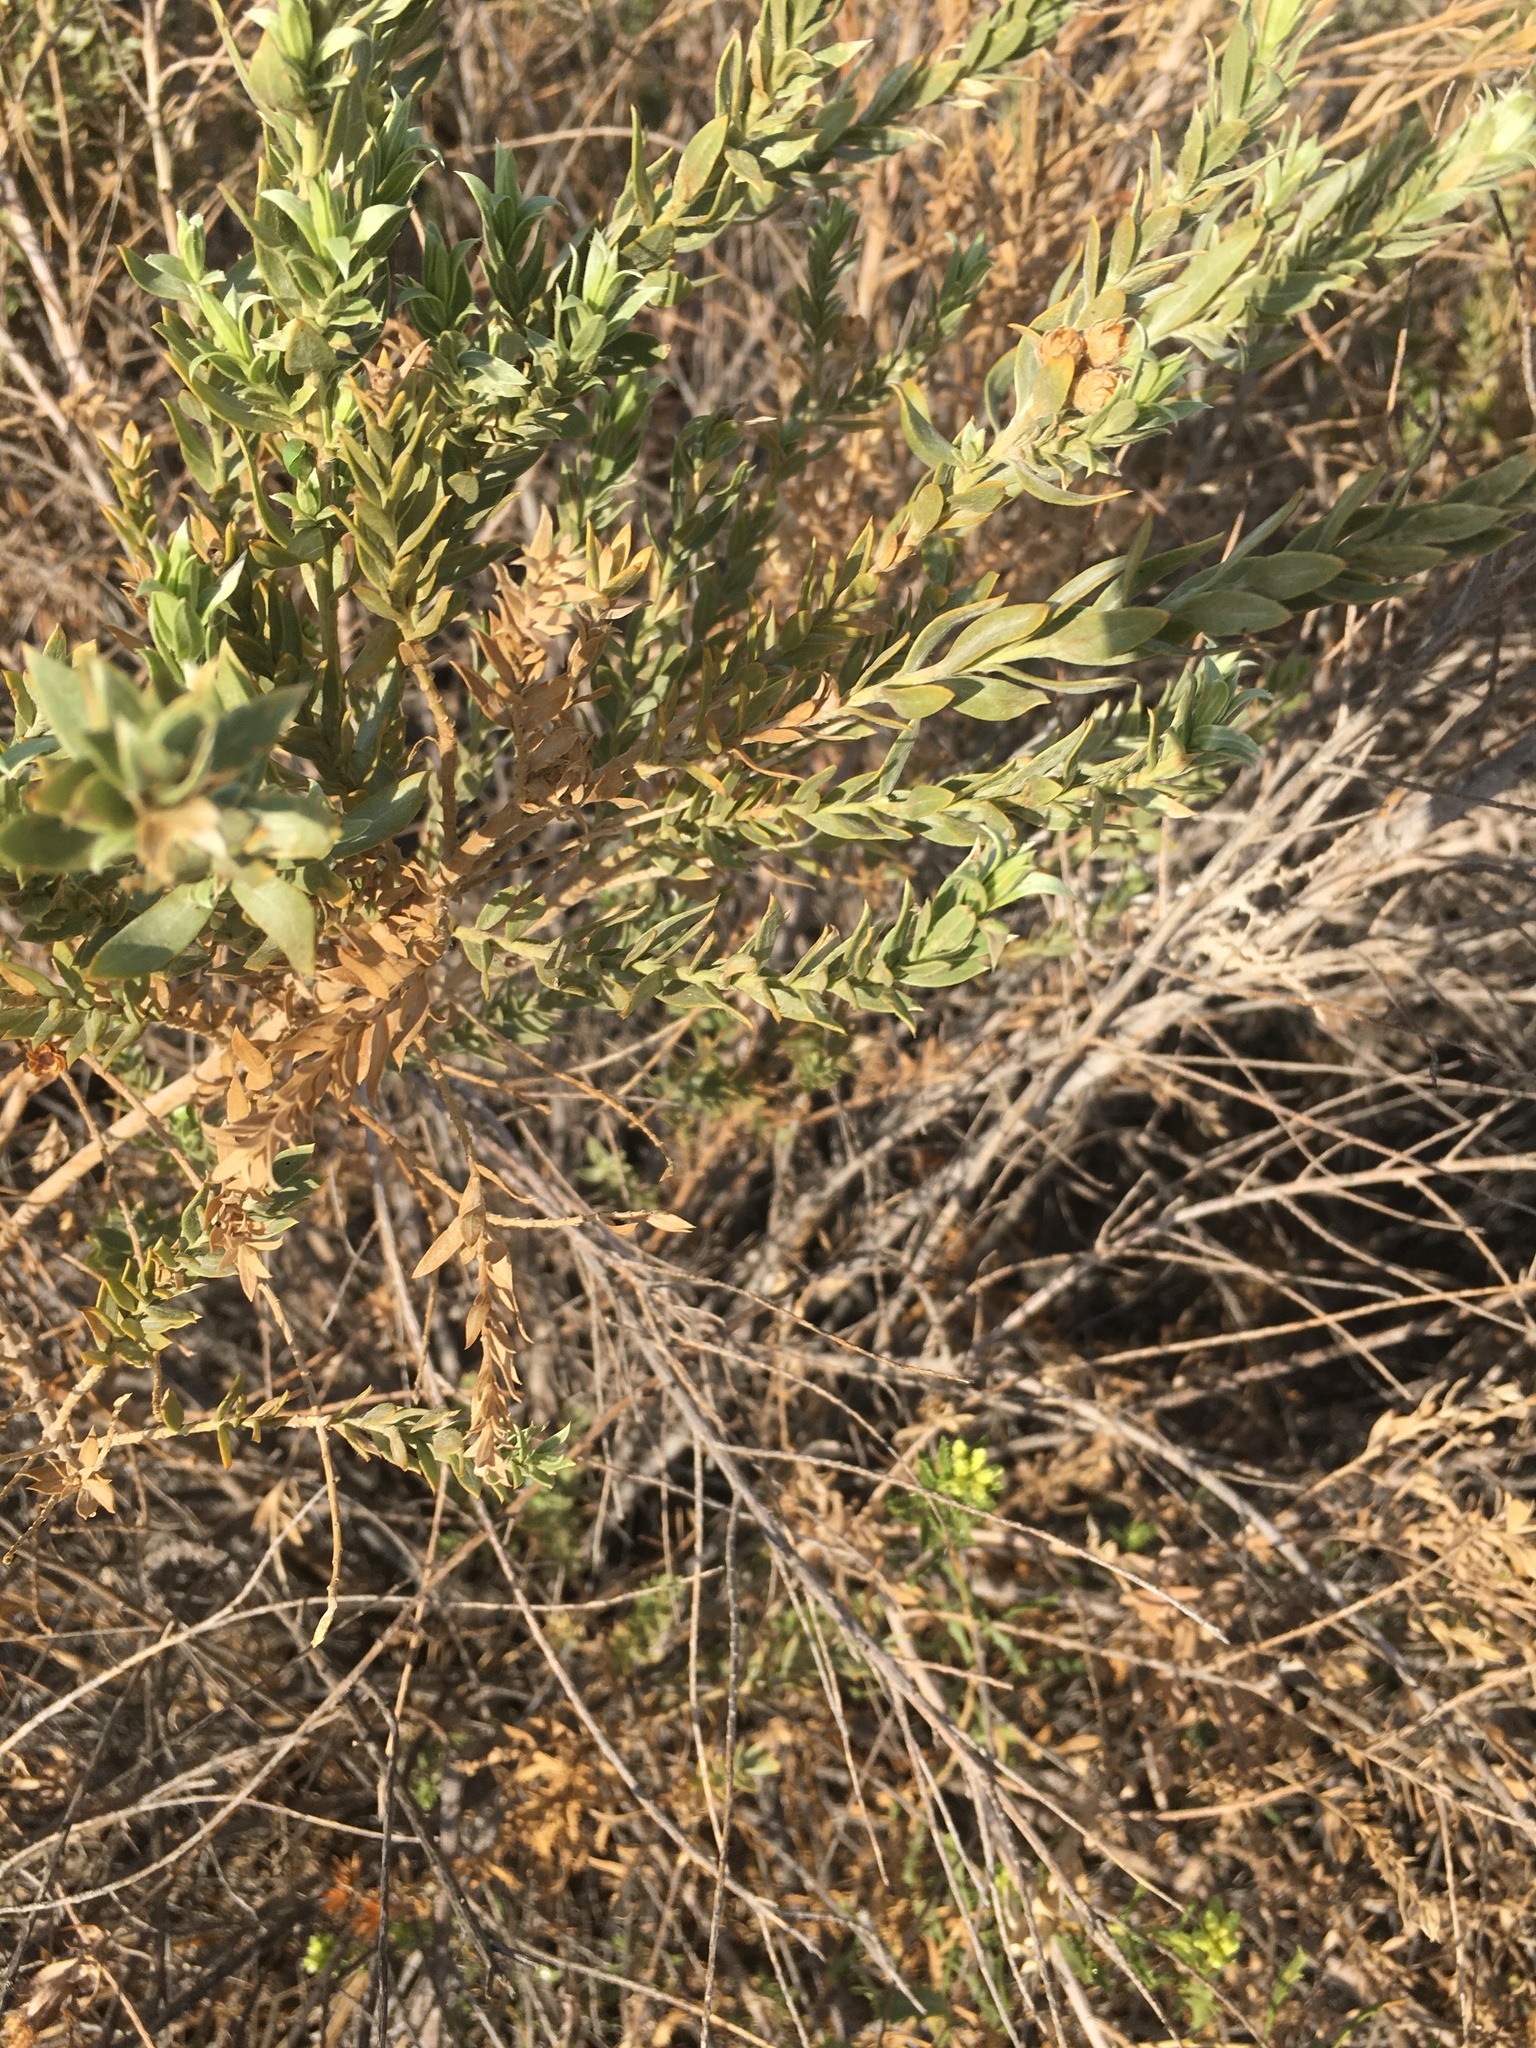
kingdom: Plantae
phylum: Tracheophyta
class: Magnoliopsida
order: Asterales
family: Asteraceae
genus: Pluchea
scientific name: Pluchea sericea
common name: Arrow-weed
